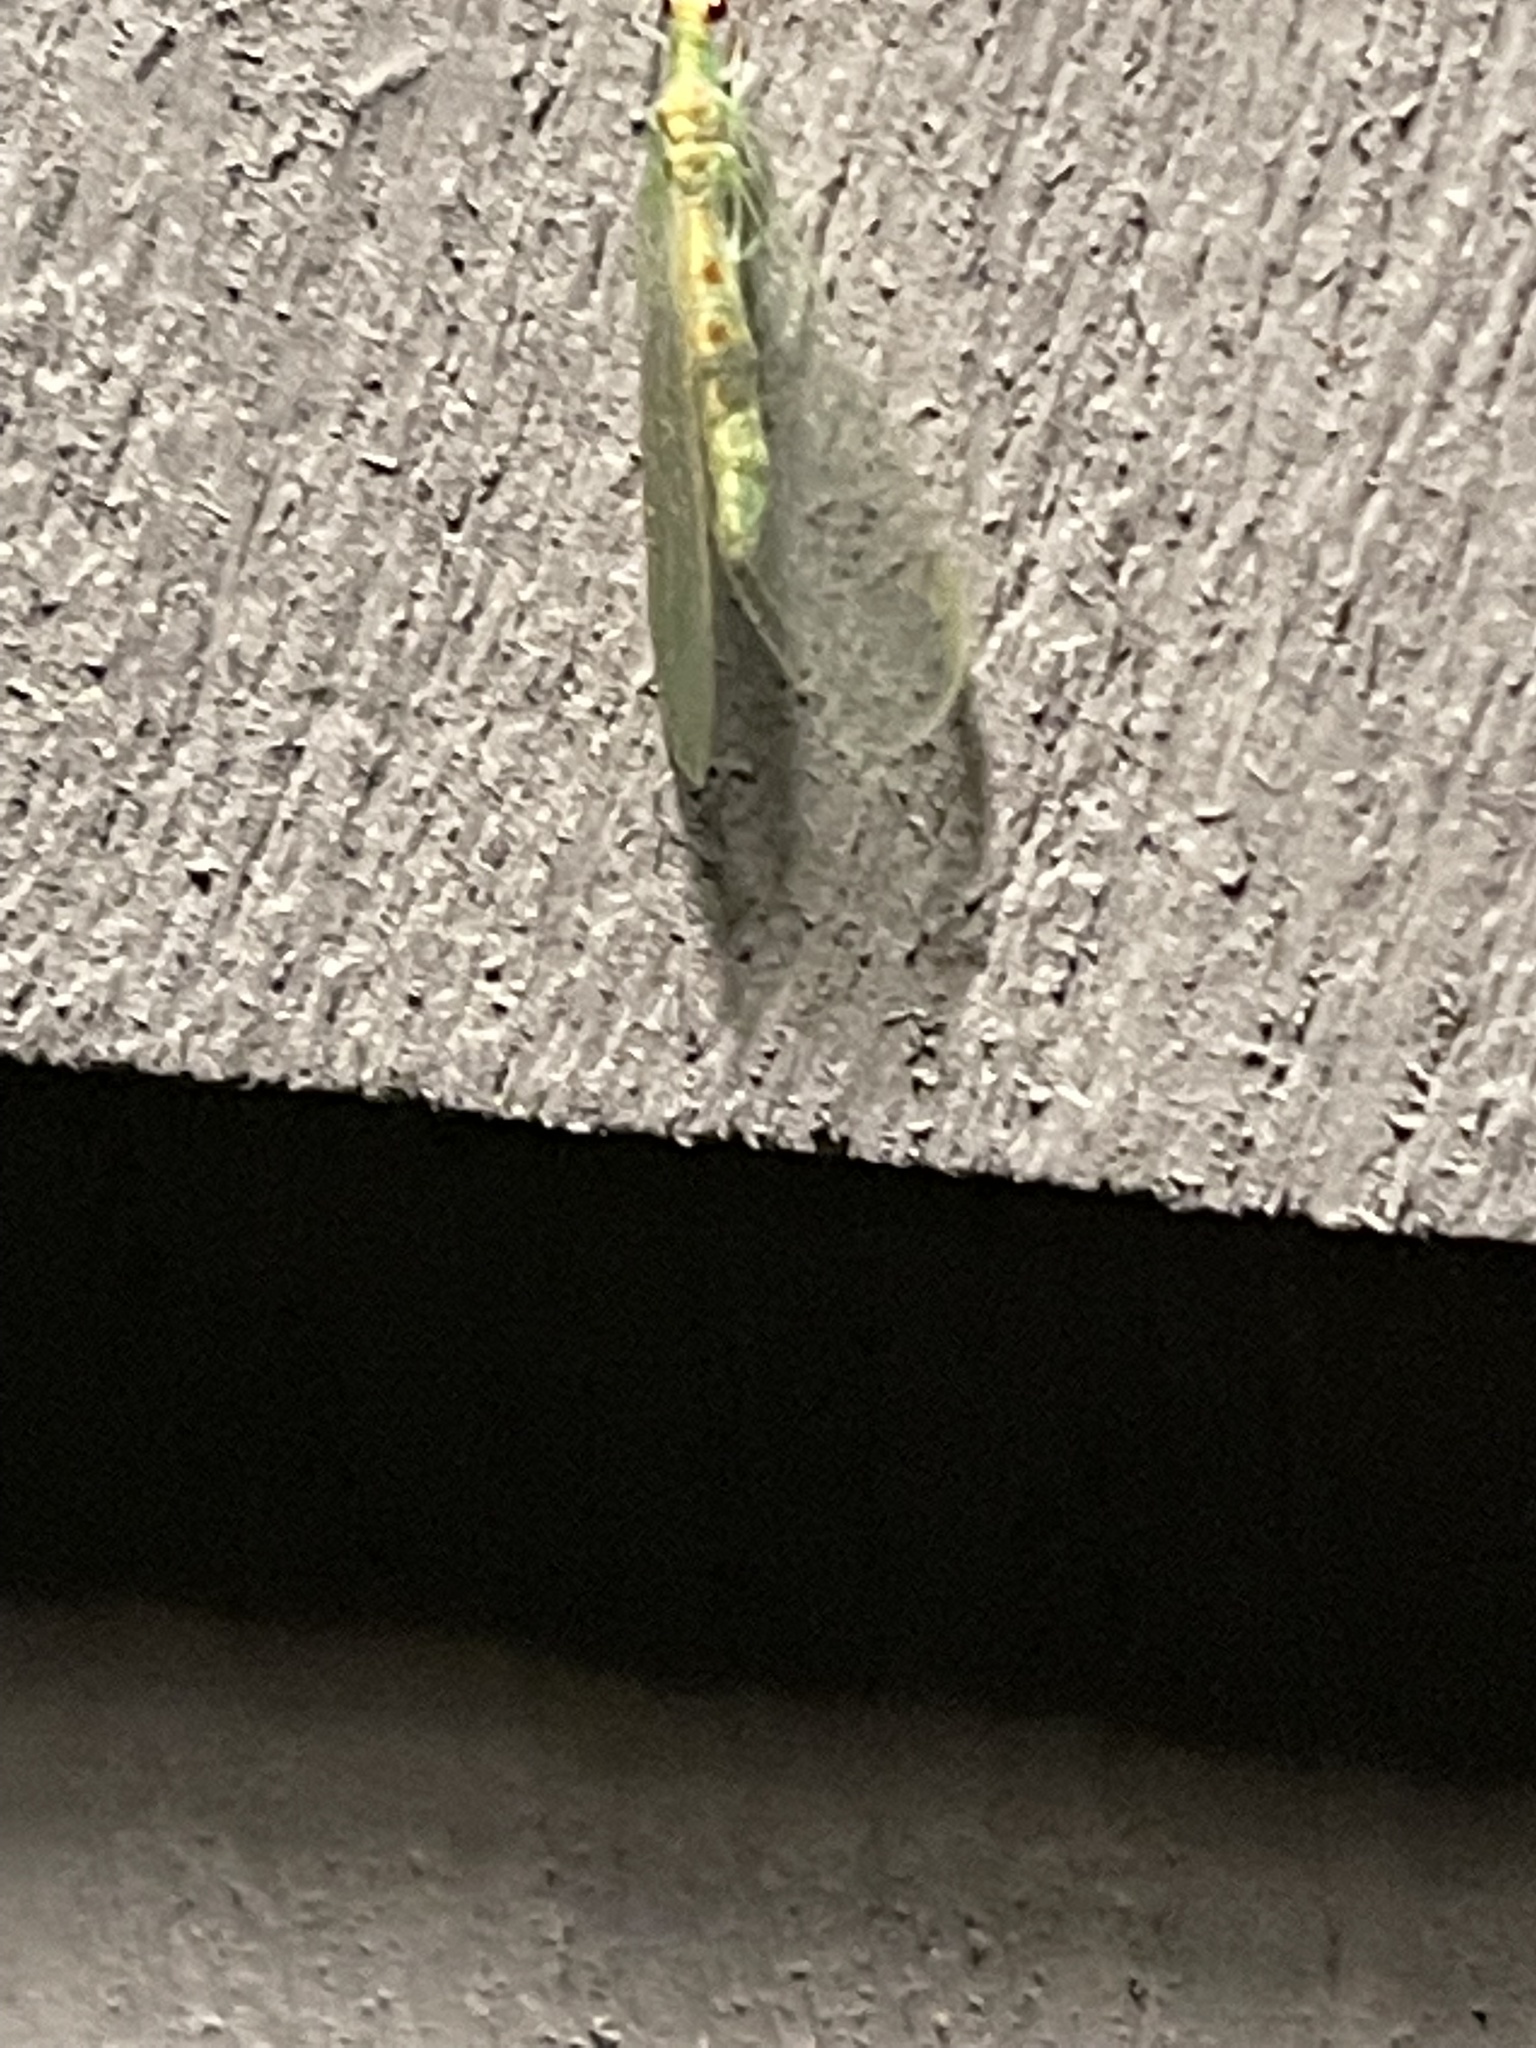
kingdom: Animalia
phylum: Arthropoda
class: Insecta
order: Neuroptera
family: Chrysopidae
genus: Chrysopa
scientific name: Chrysopa quadripunctata
